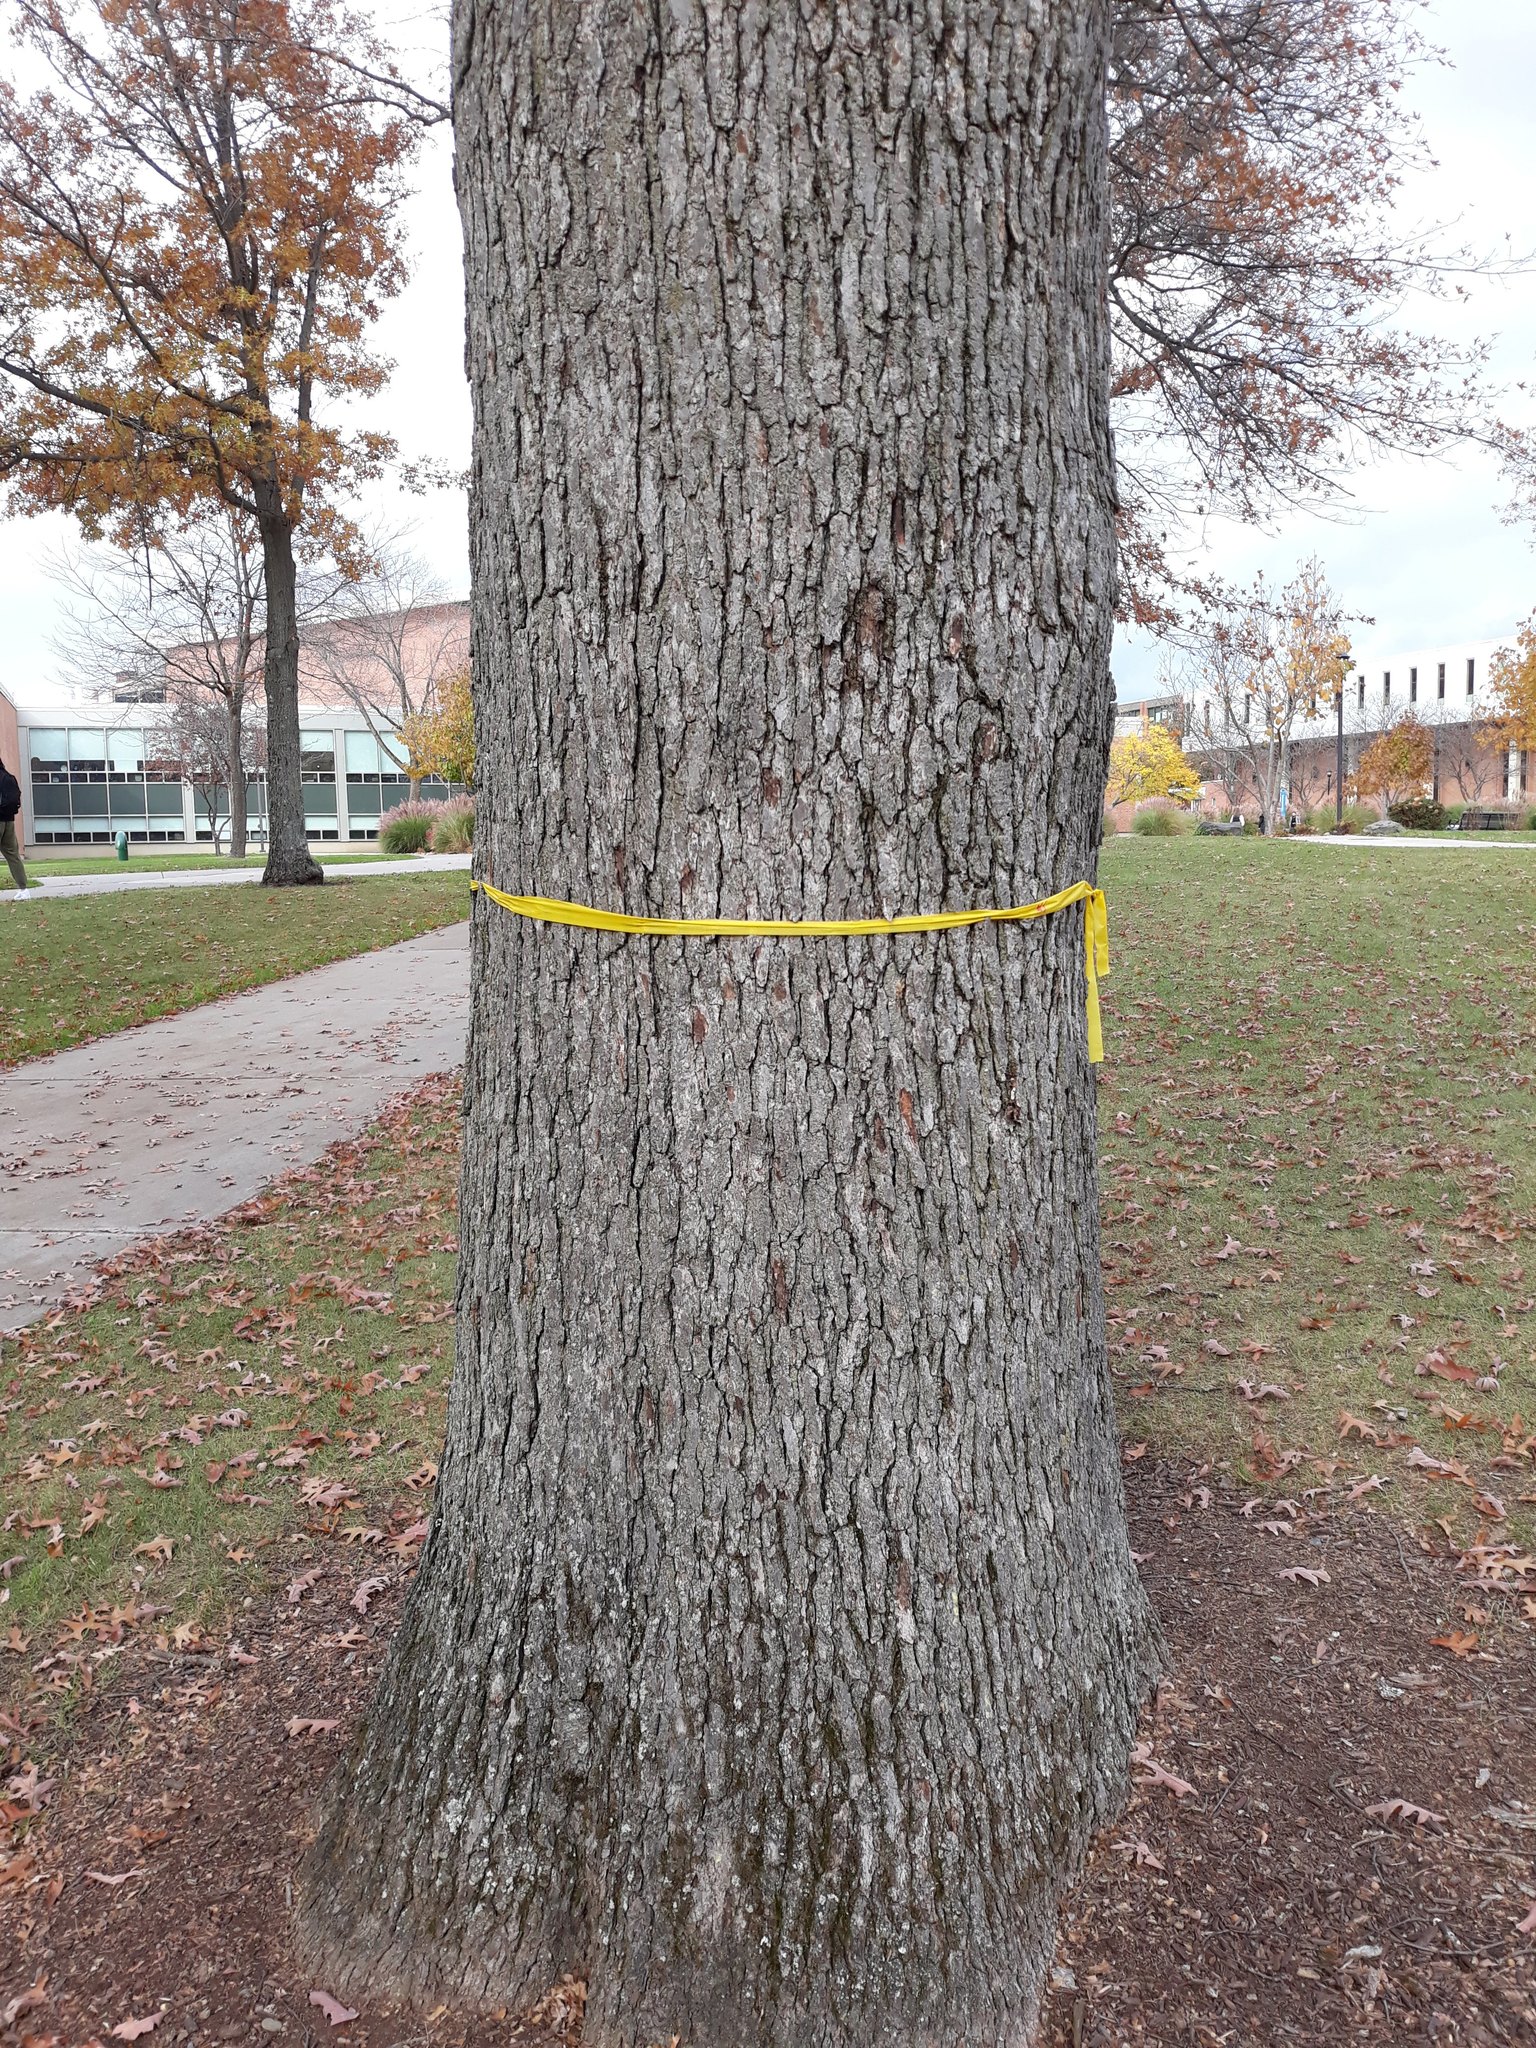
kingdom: Plantae
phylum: Tracheophyta
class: Magnoliopsida
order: Fagales
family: Fagaceae
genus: Quercus
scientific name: Quercus alba
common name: White oak
